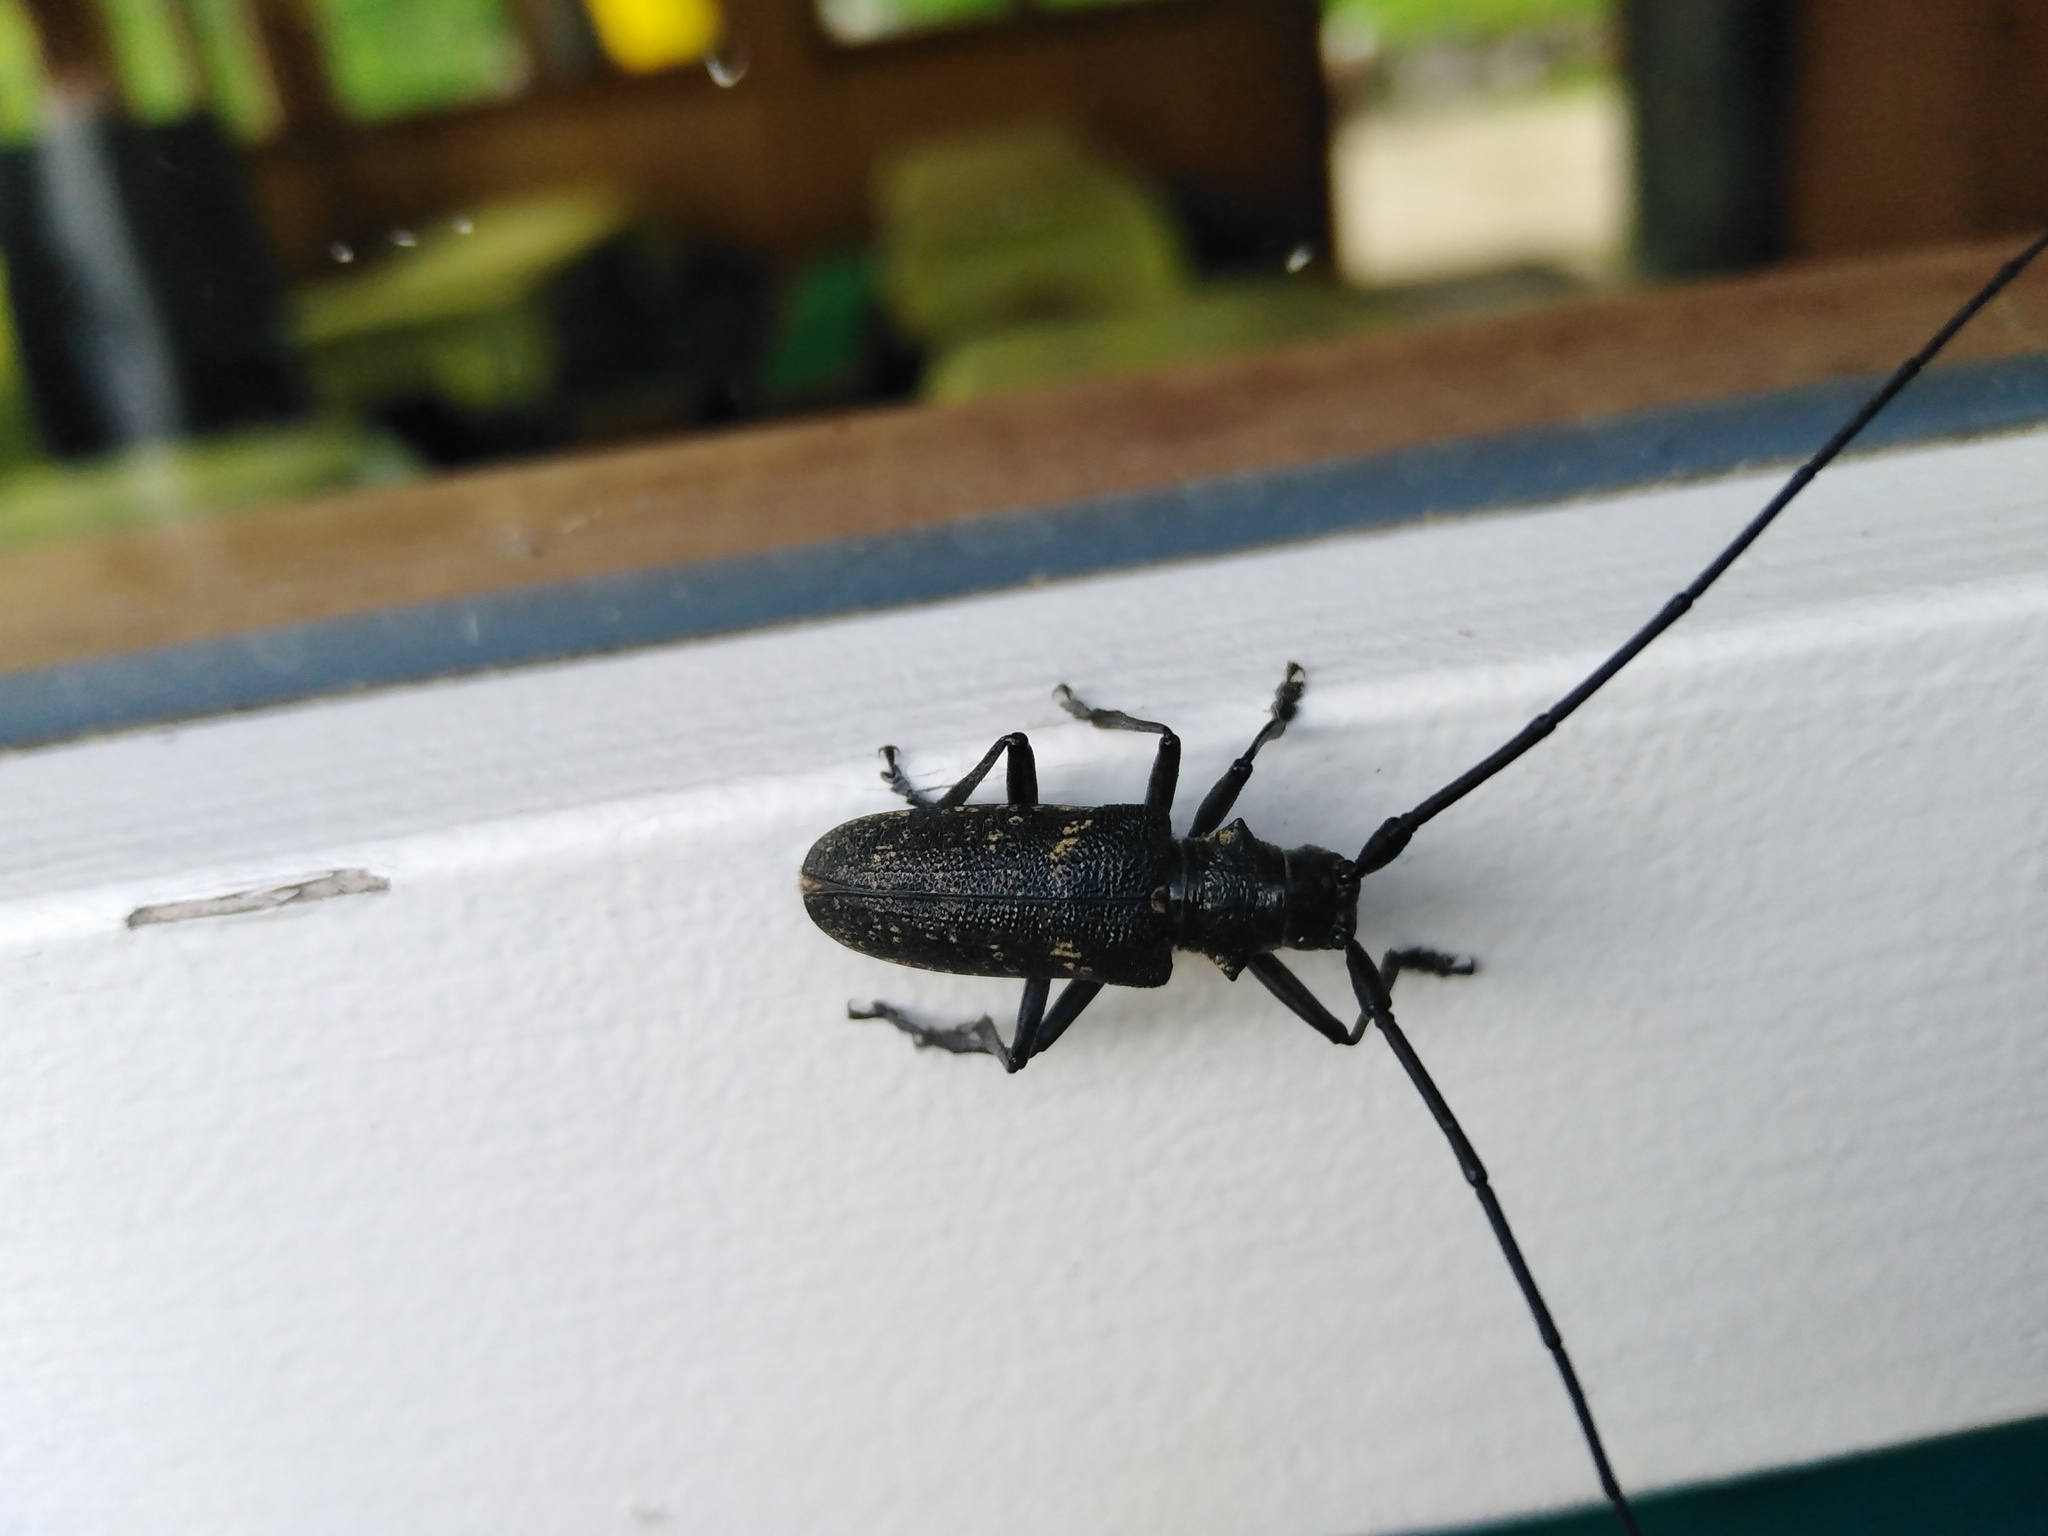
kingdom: Animalia
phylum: Arthropoda
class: Insecta
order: Coleoptera
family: Cerambycidae
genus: Monochamus
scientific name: Monochamus sutor
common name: Pine sawyer
